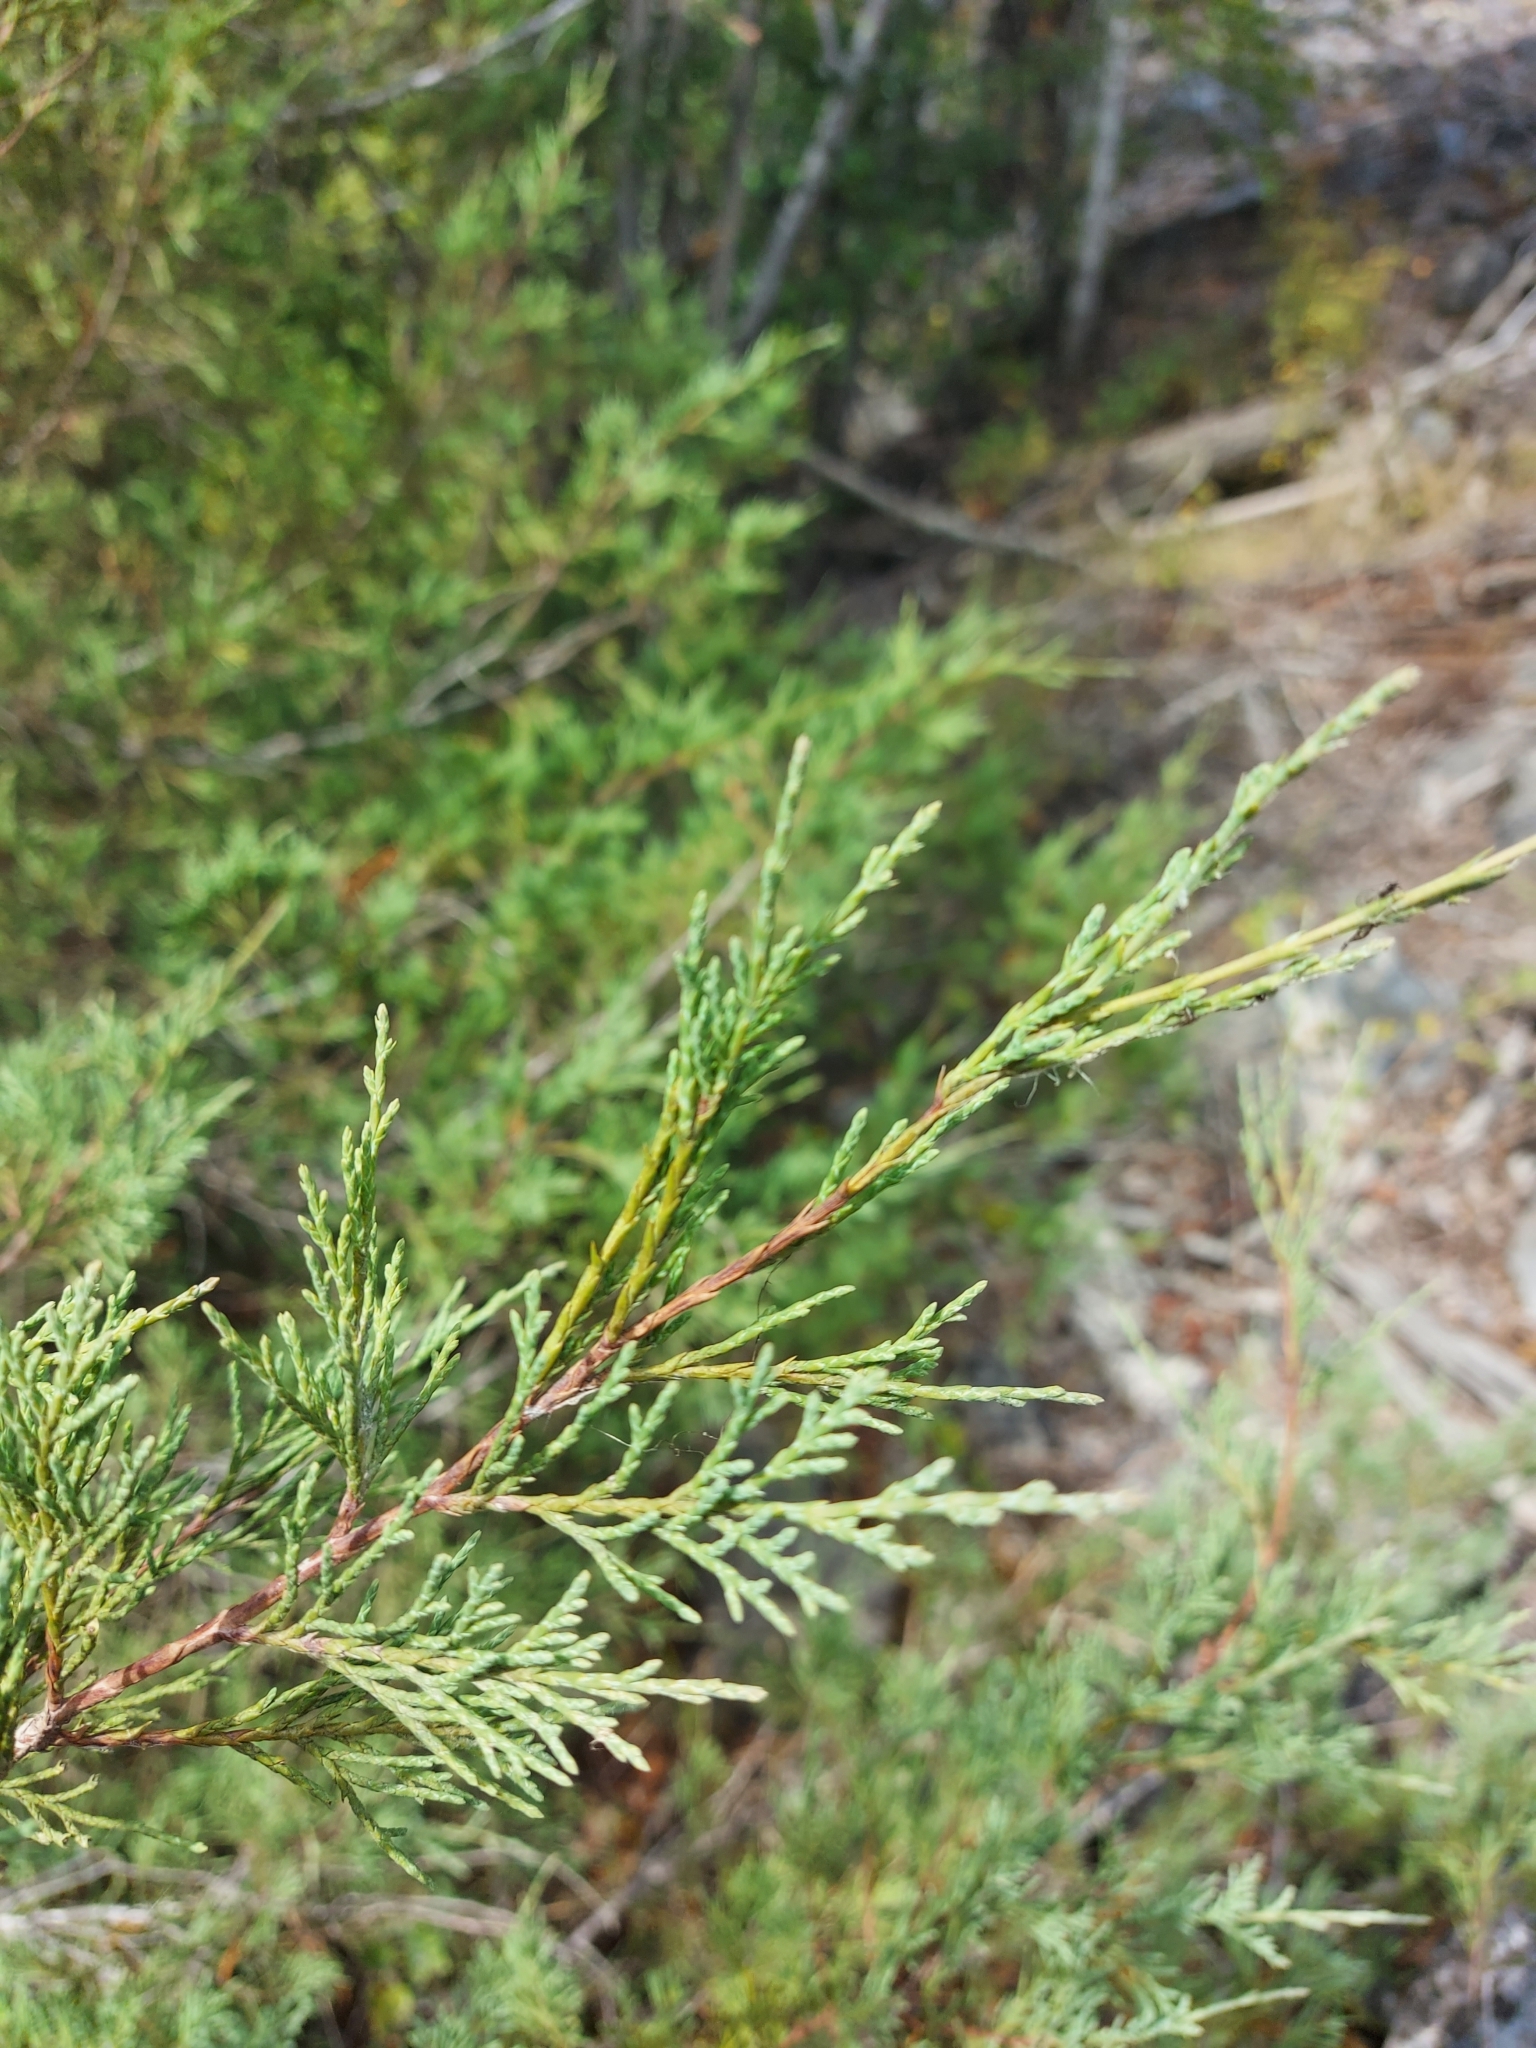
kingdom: Plantae
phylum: Tracheophyta
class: Pinopsida
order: Pinales
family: Cupressaceae
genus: Juniperus
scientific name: Juniperus scopulorum
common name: Rocky mountain juniper
